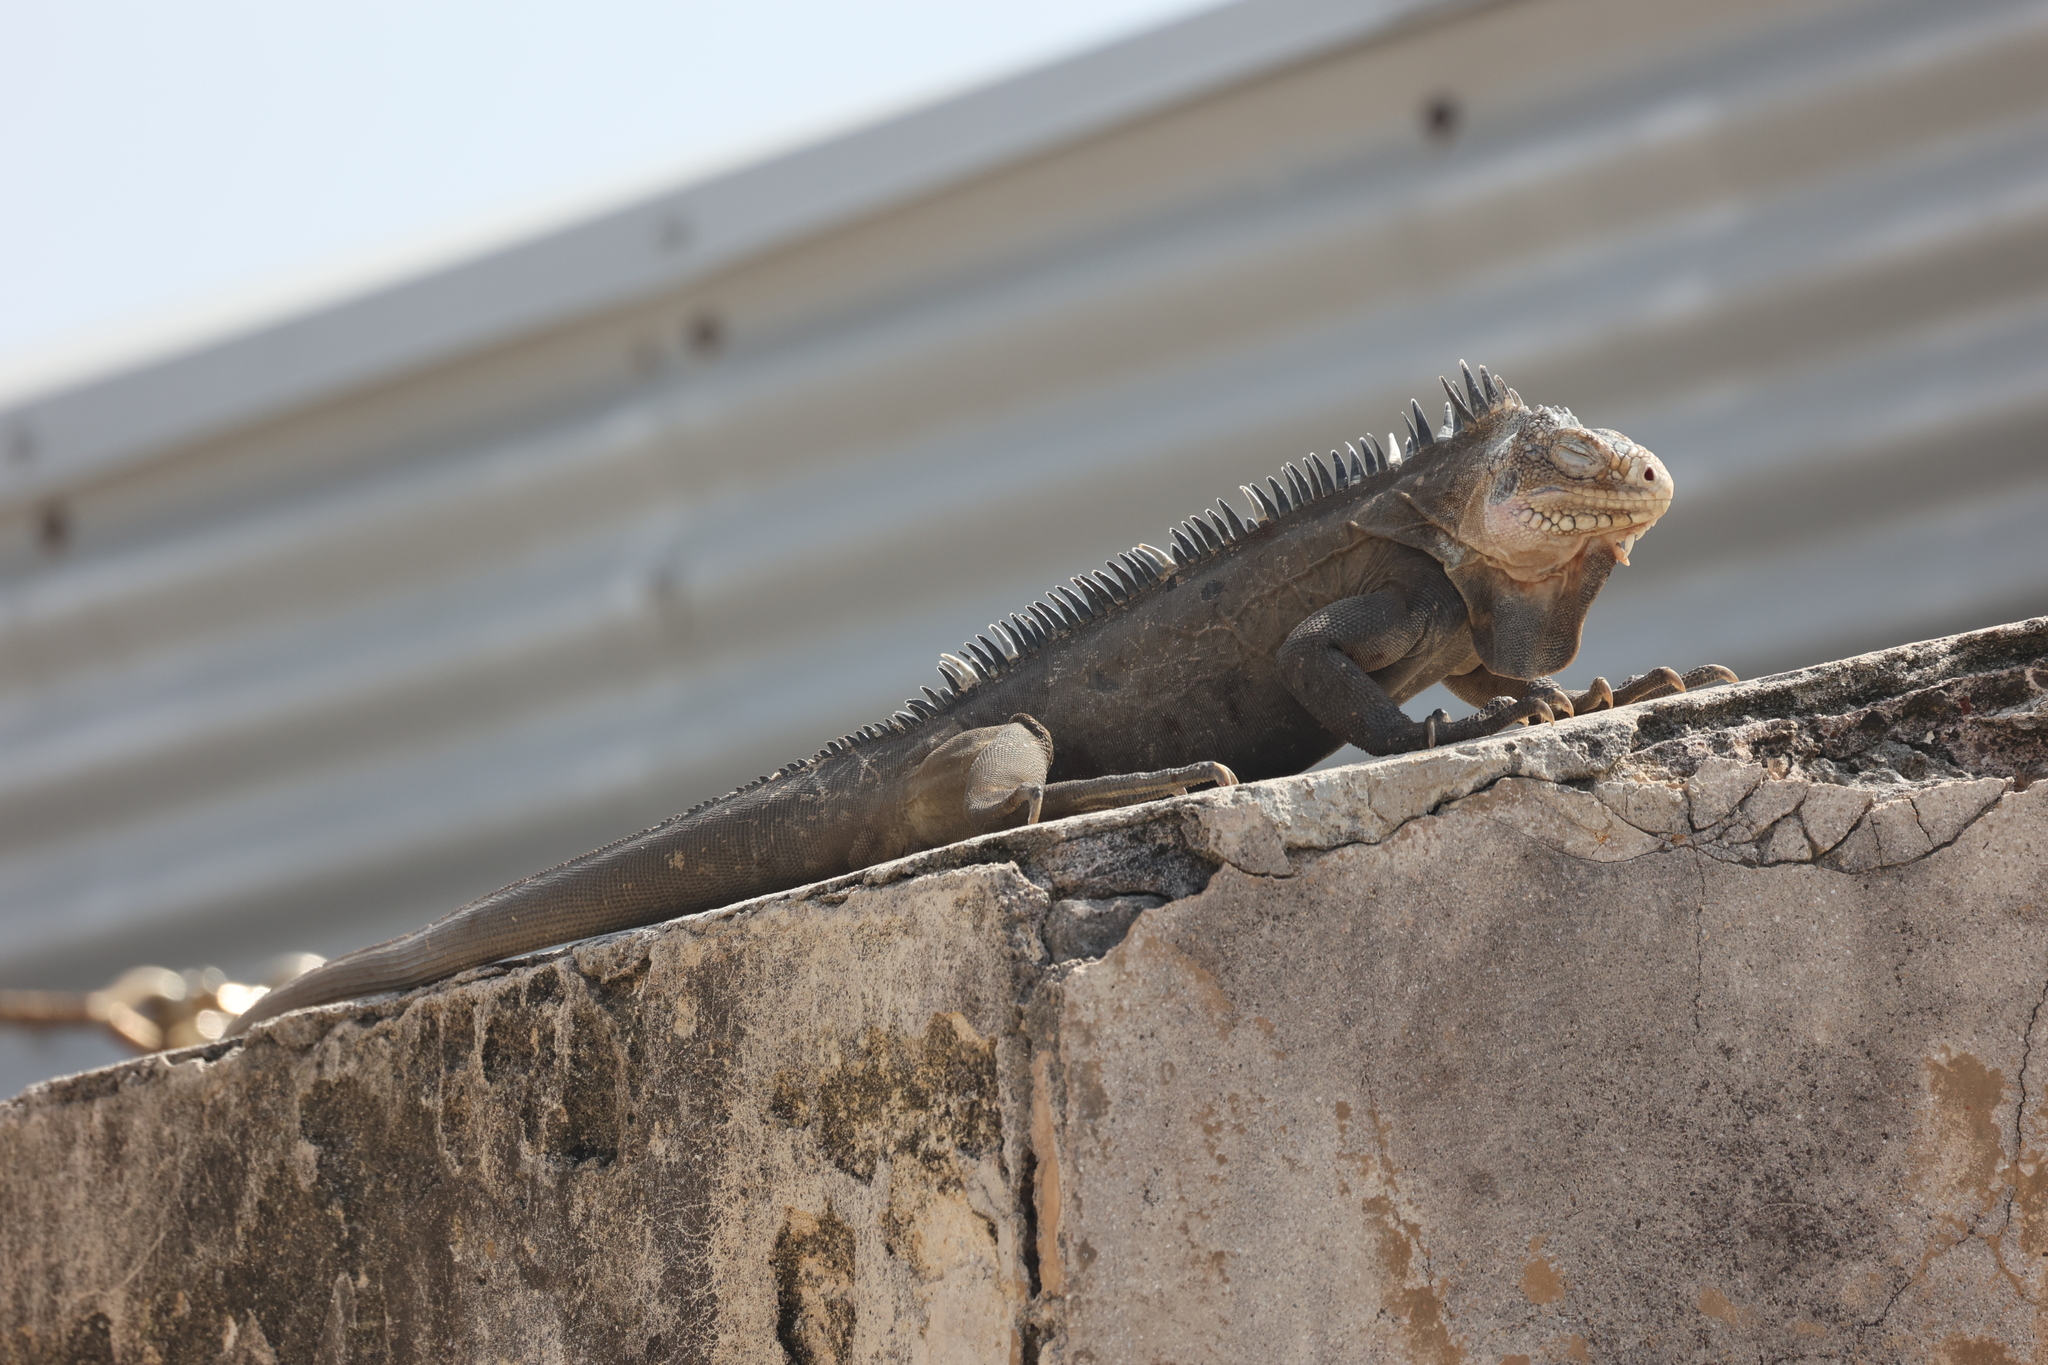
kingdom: Animalia
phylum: Chordata
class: Squamata
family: Iguanidae
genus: Iguana
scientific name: Iguana delicatissima
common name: West indian iguana
